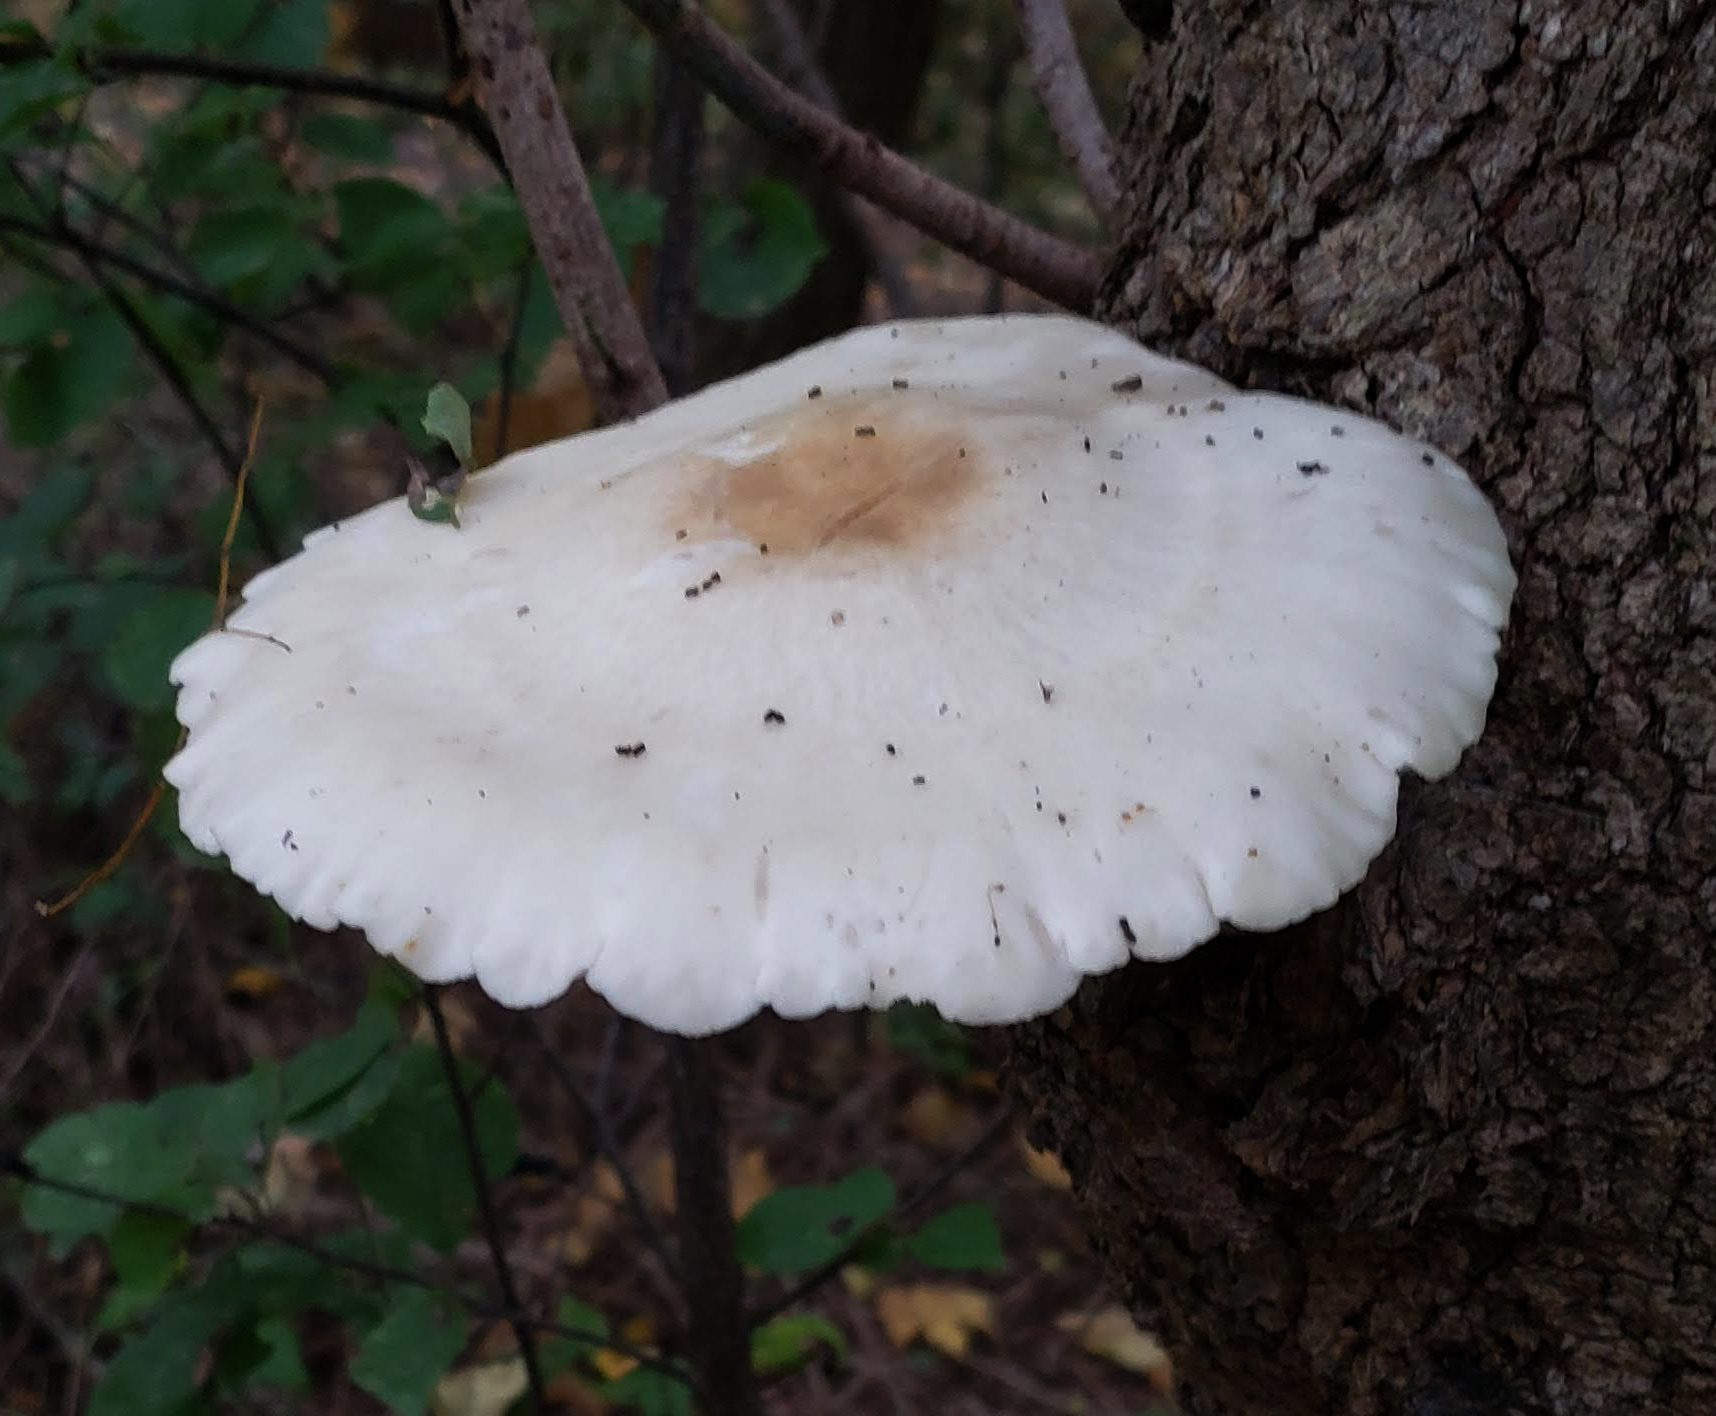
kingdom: Fungi
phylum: Basidiomycota
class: Agaricomycetes
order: Agaricales
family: Lyophyllaceae
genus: Hypsizygus
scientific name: Hypsizygus ulmarius
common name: Elm leech
